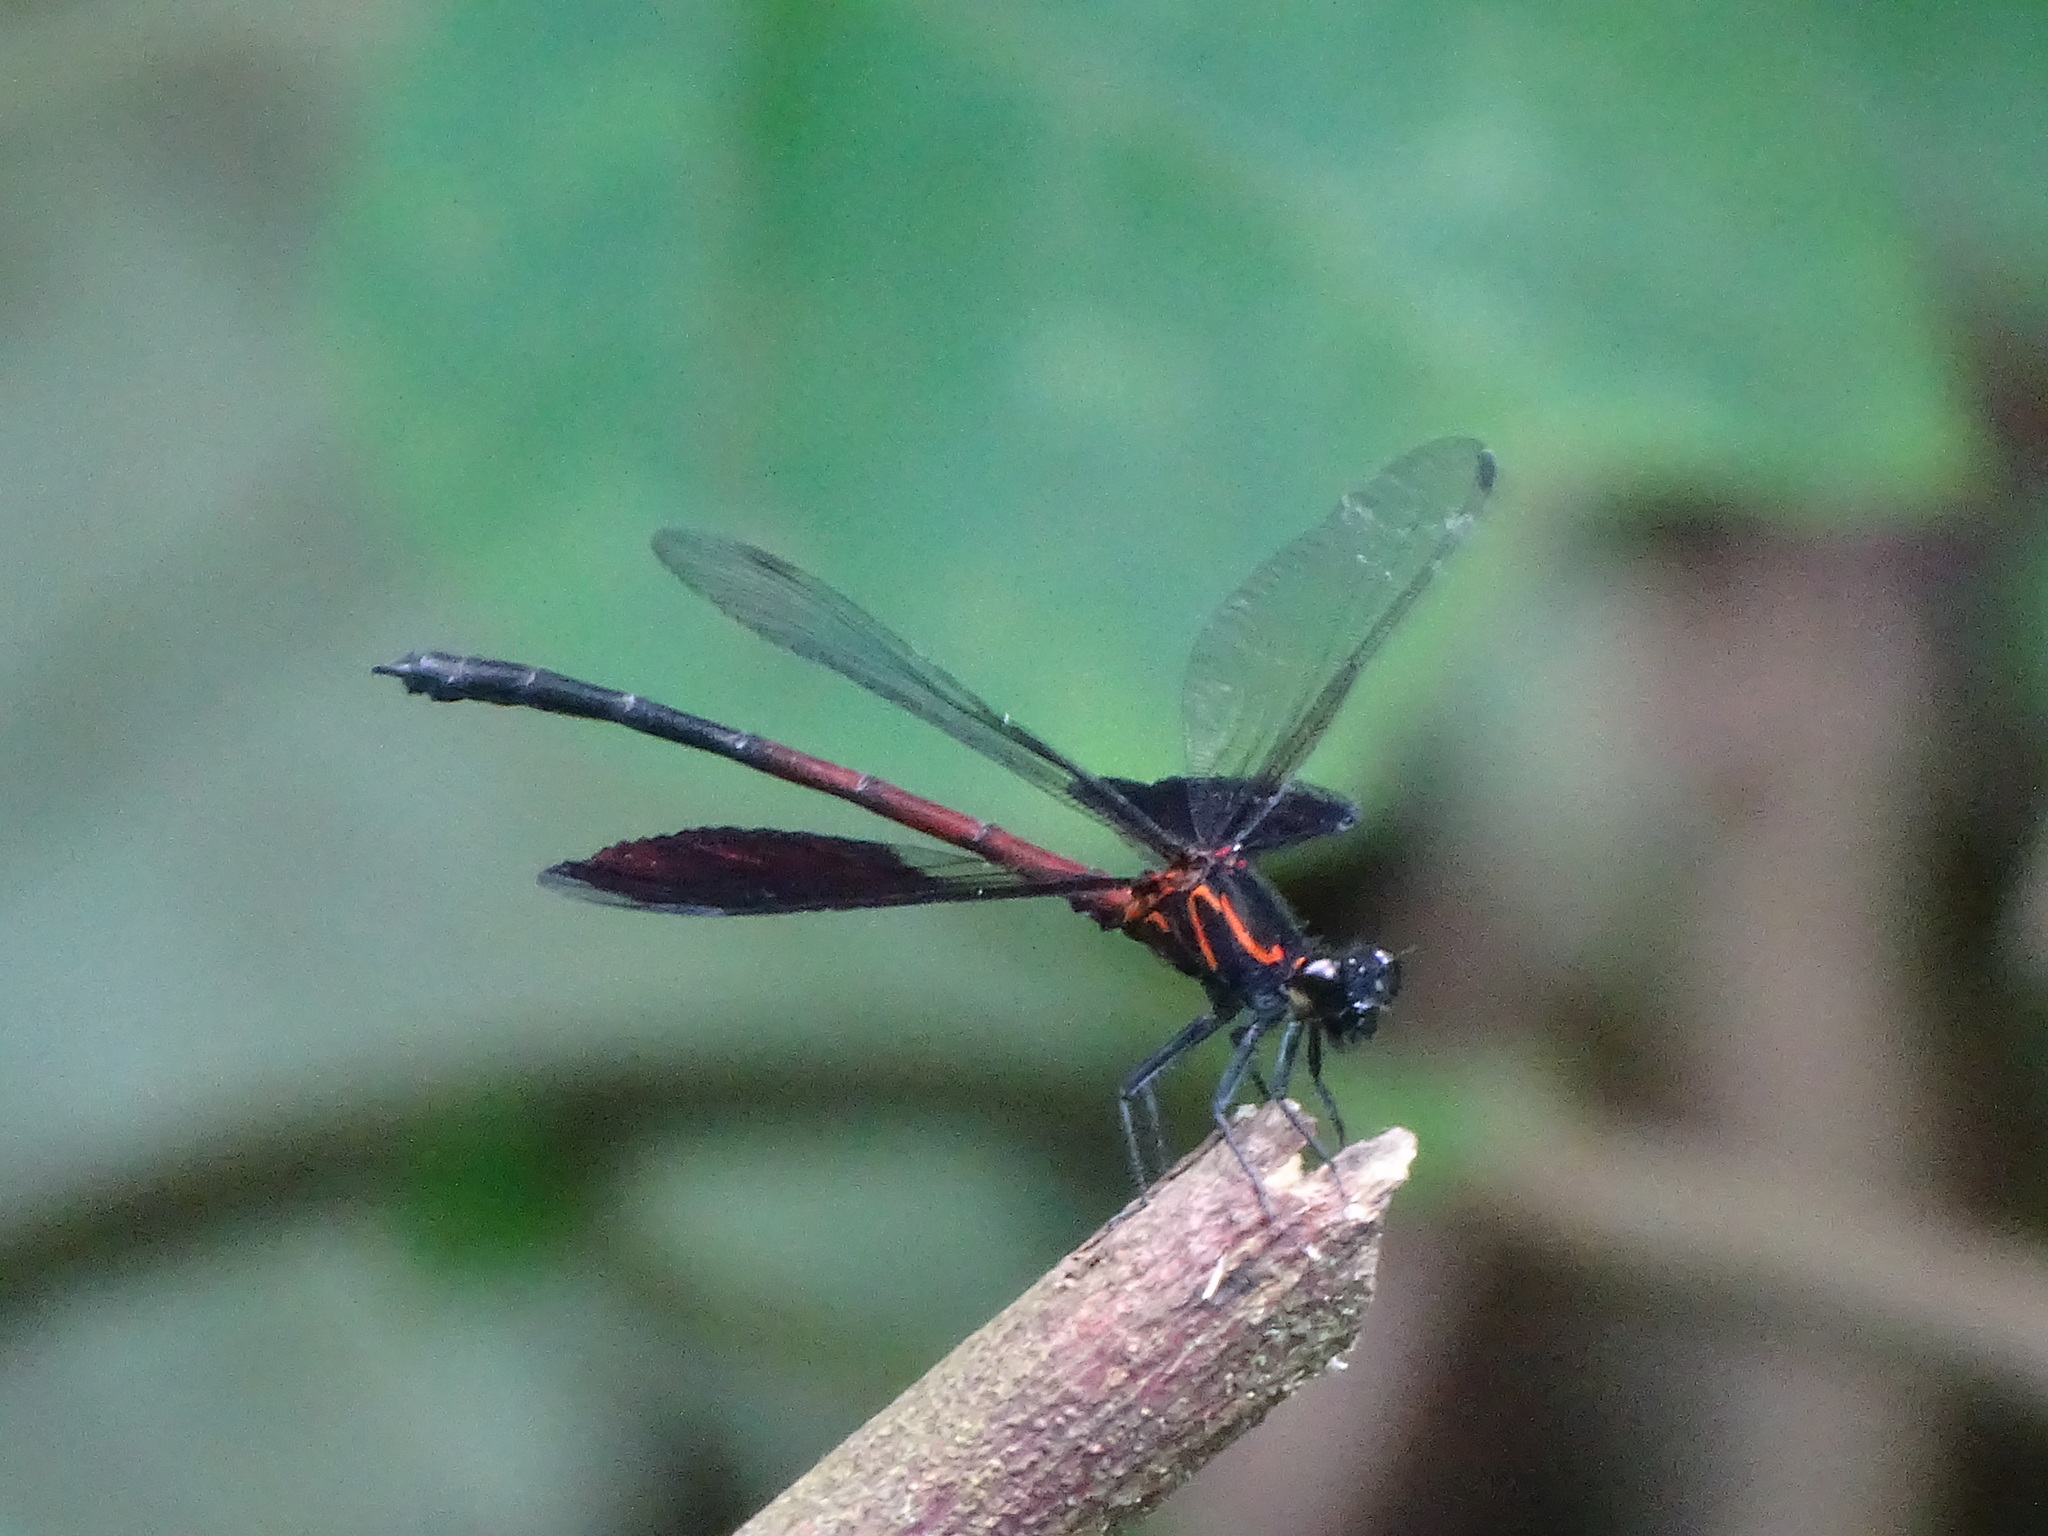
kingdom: Animalia
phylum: Arthropoda
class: Insecta
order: Odonata
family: Euphaeidae
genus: Euphaea
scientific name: Euphaea formosa
